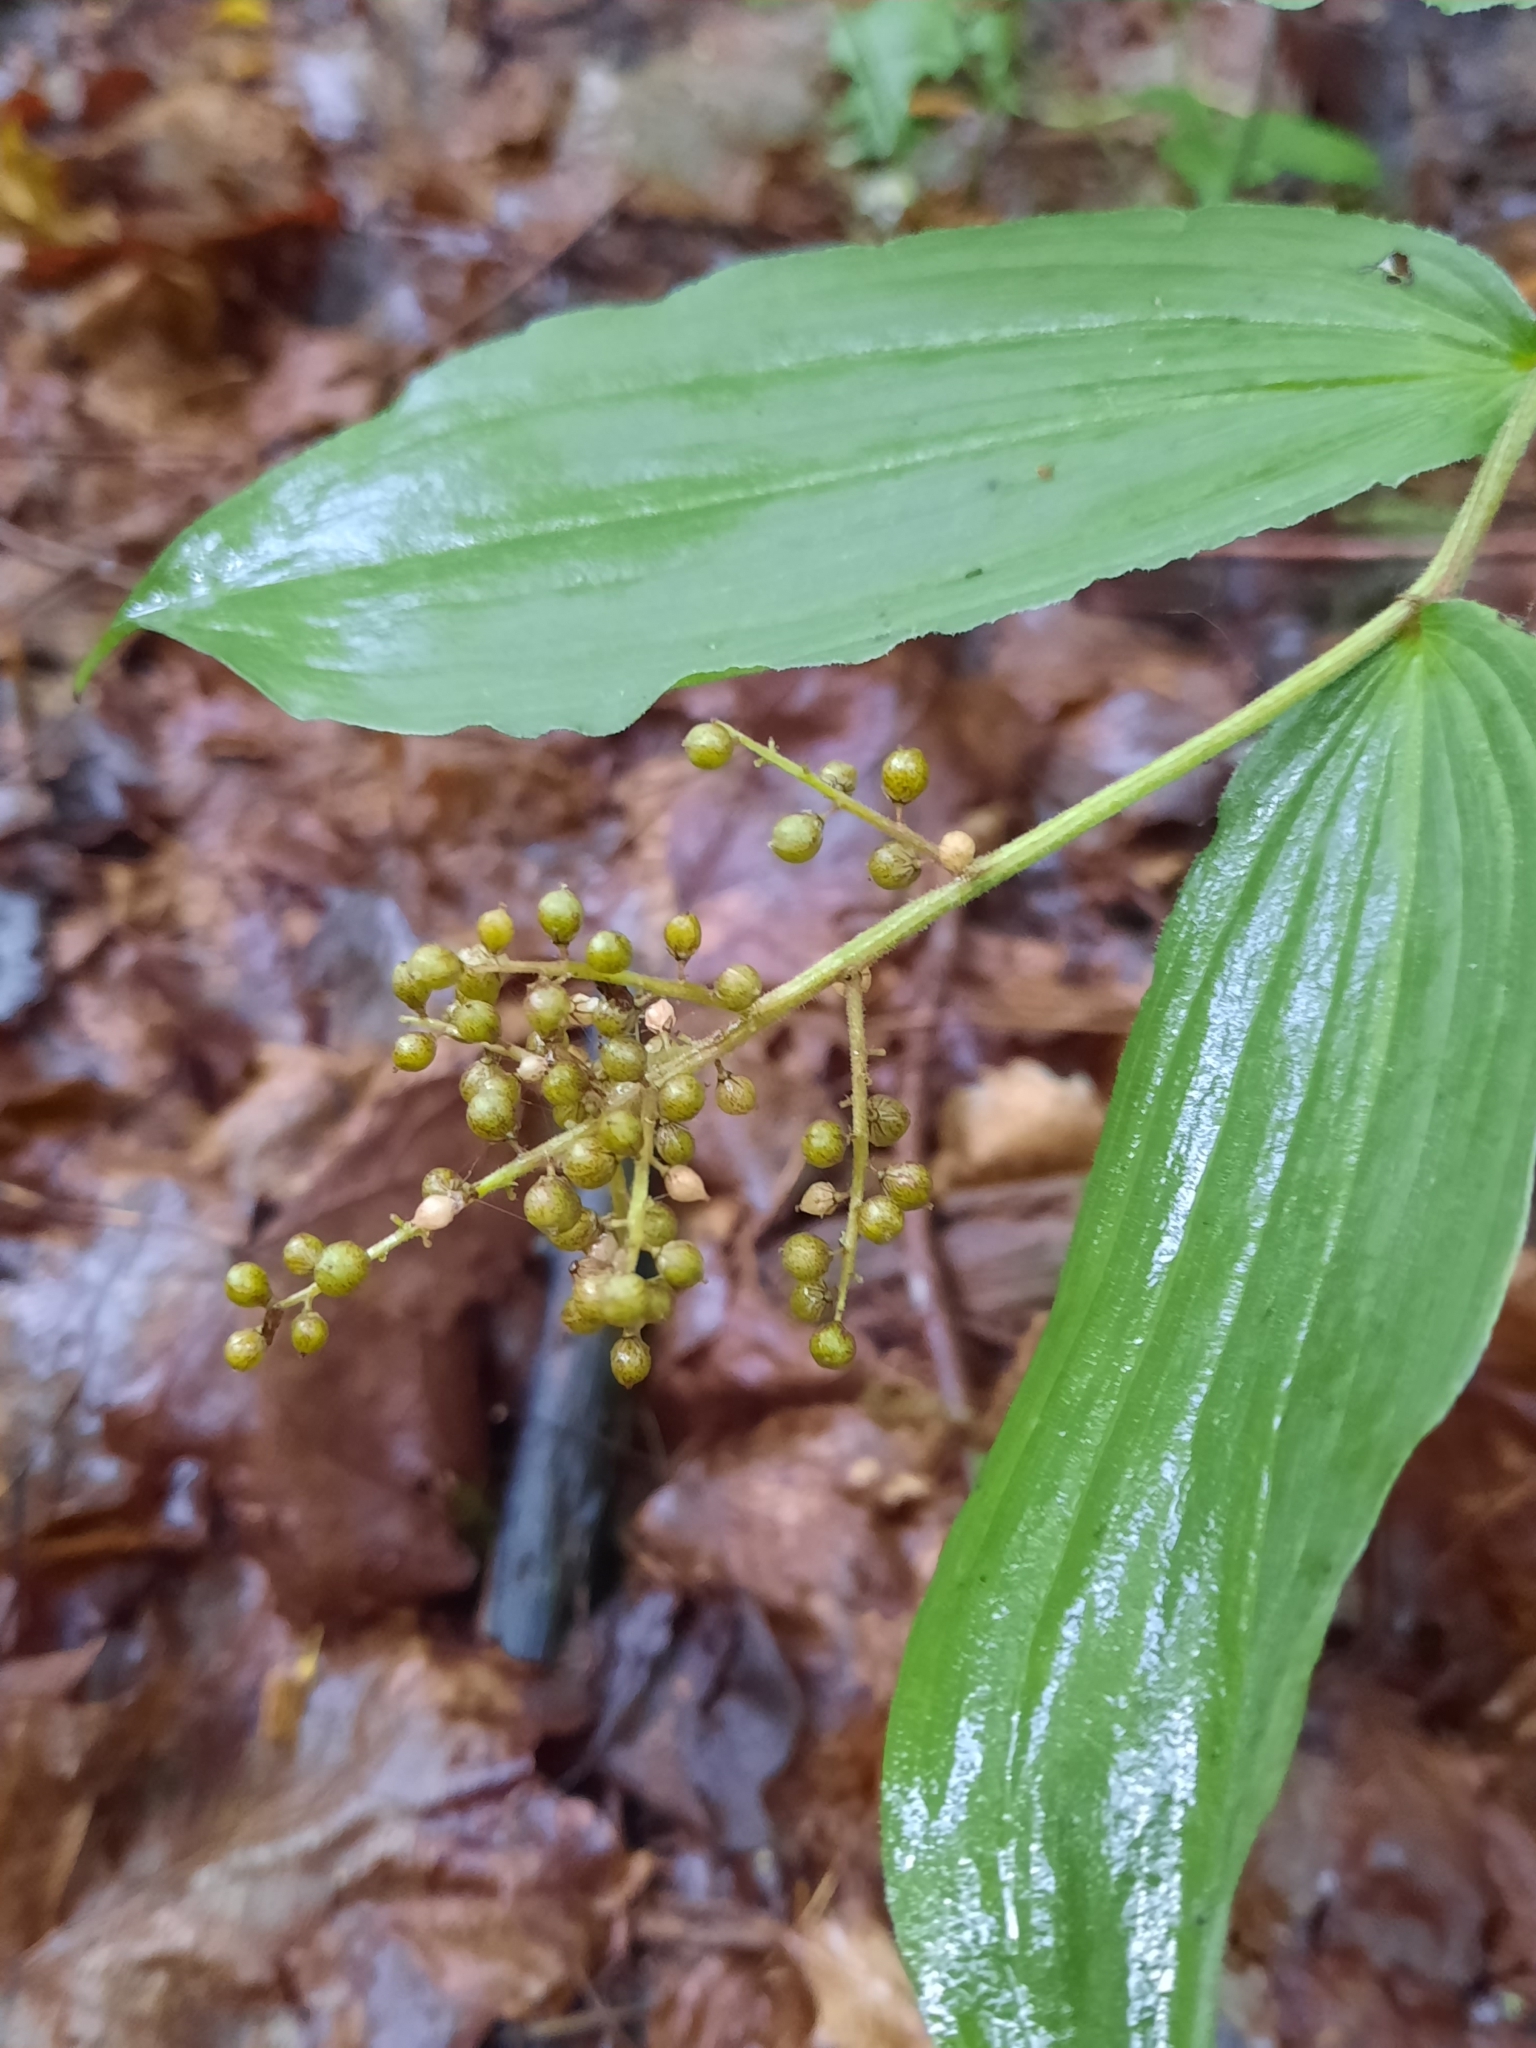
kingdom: Plantae
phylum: Tracheophyta
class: Liliopsida
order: Asparagales
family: Asparagaceae
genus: Maianthemum
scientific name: Maianthemum racemosum
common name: False spikenard
